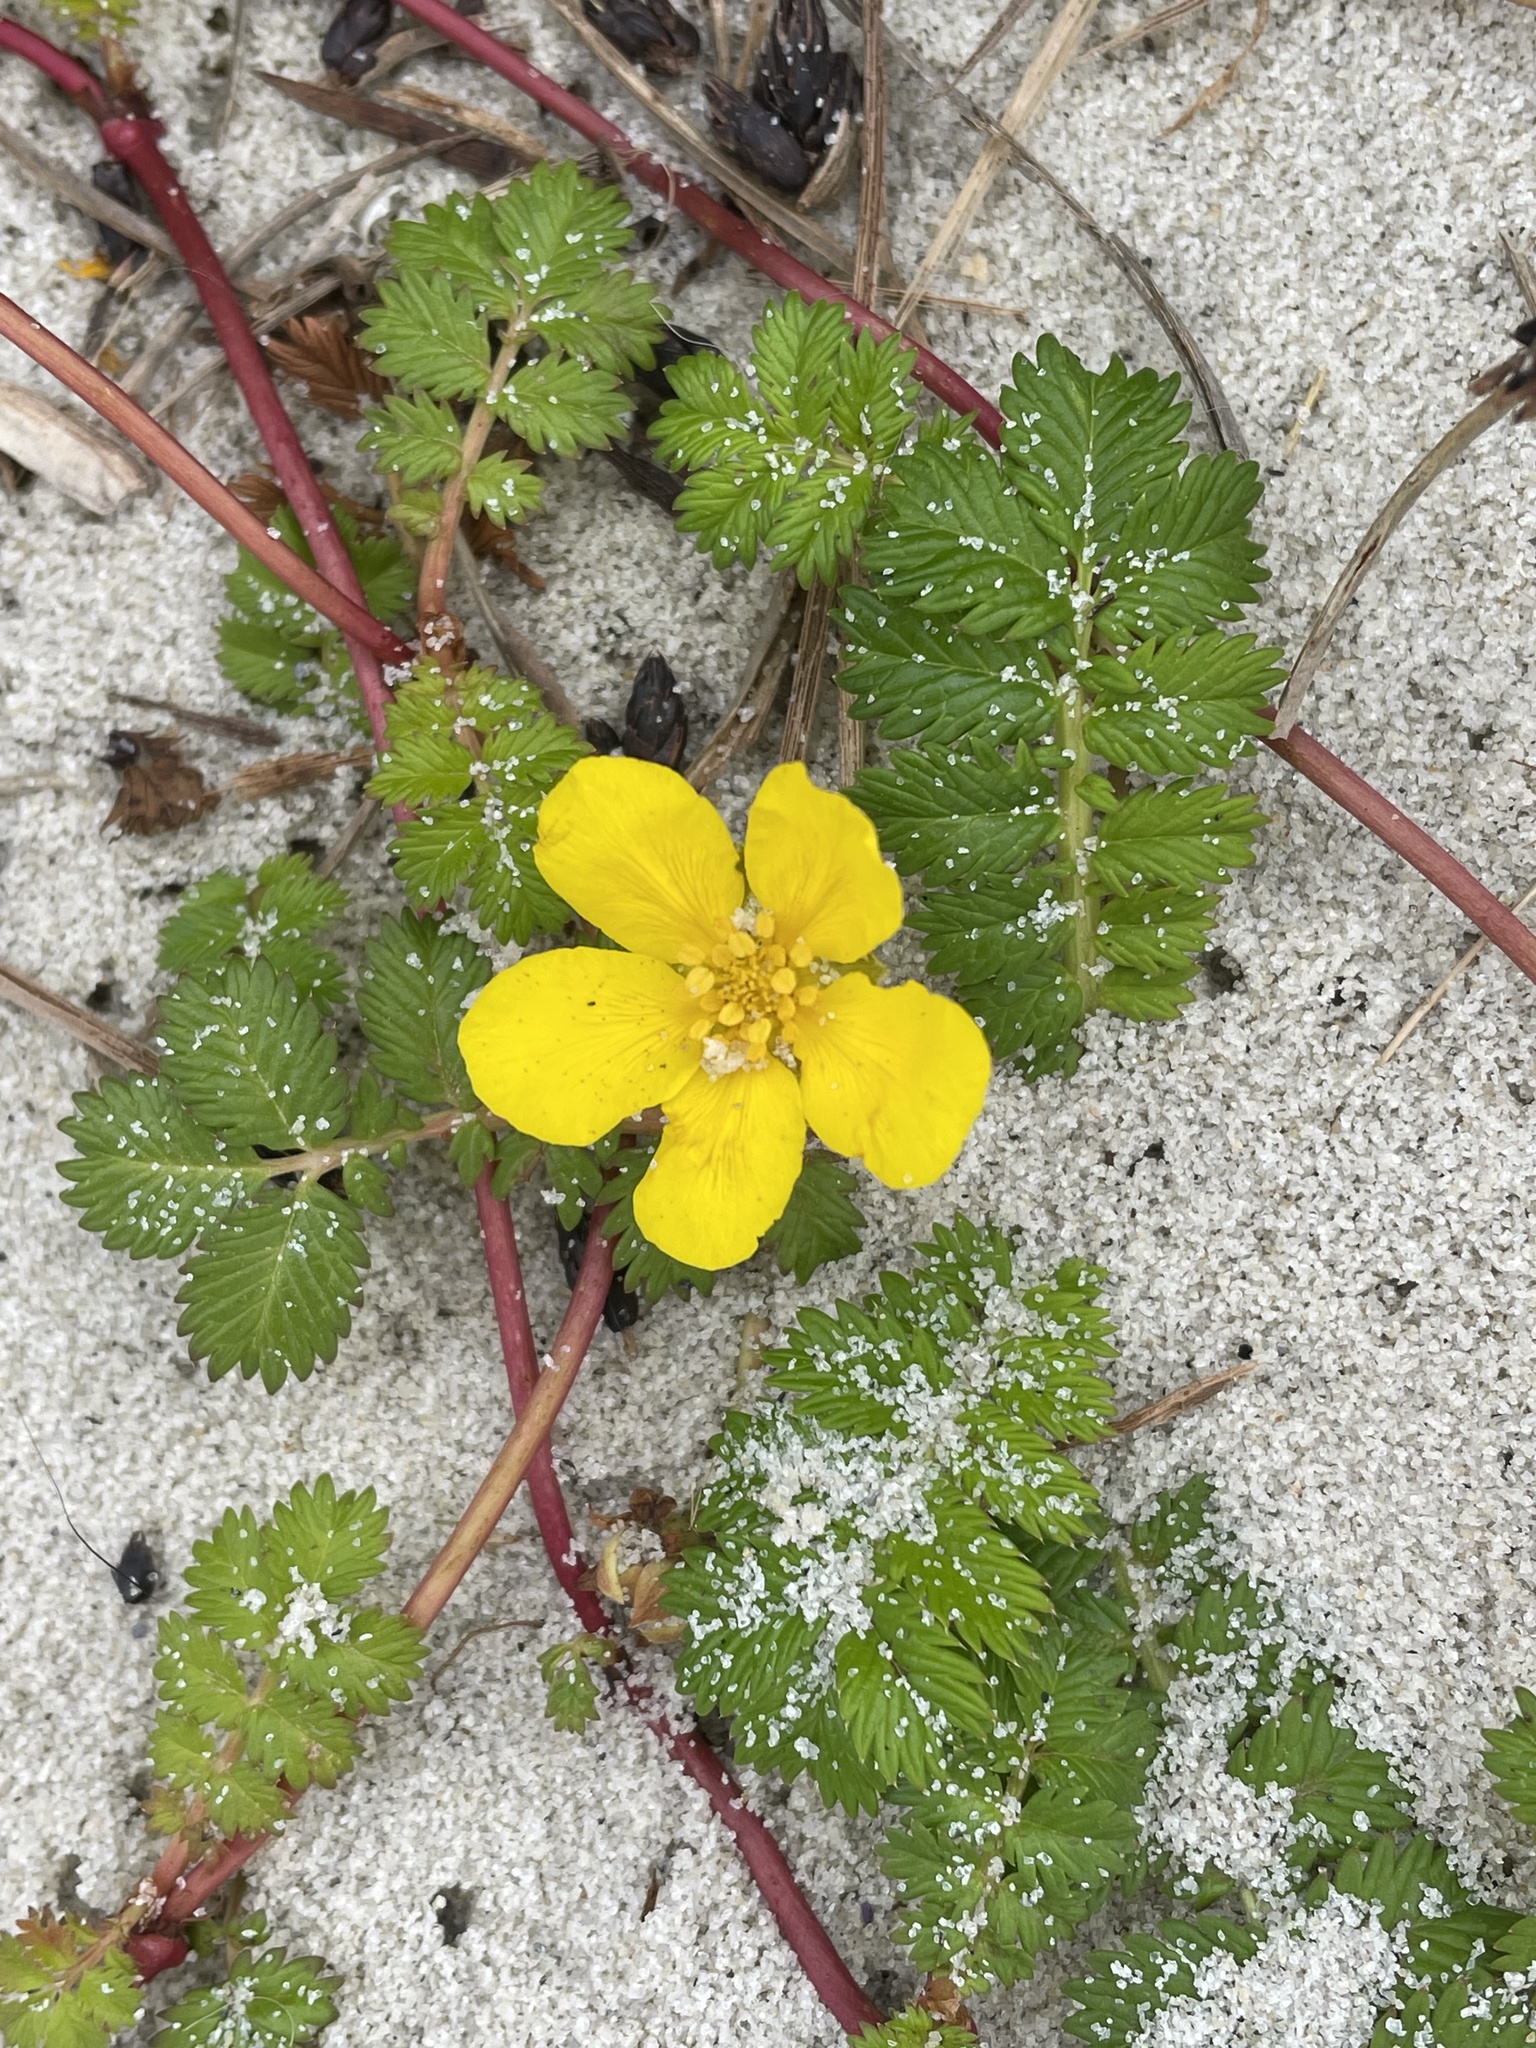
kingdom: Plantae
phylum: Tracheophyta
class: Magnoliopsida
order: Rosales
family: Rosaceae
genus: Argentina
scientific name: Argentina anserina
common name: Common silverweed
